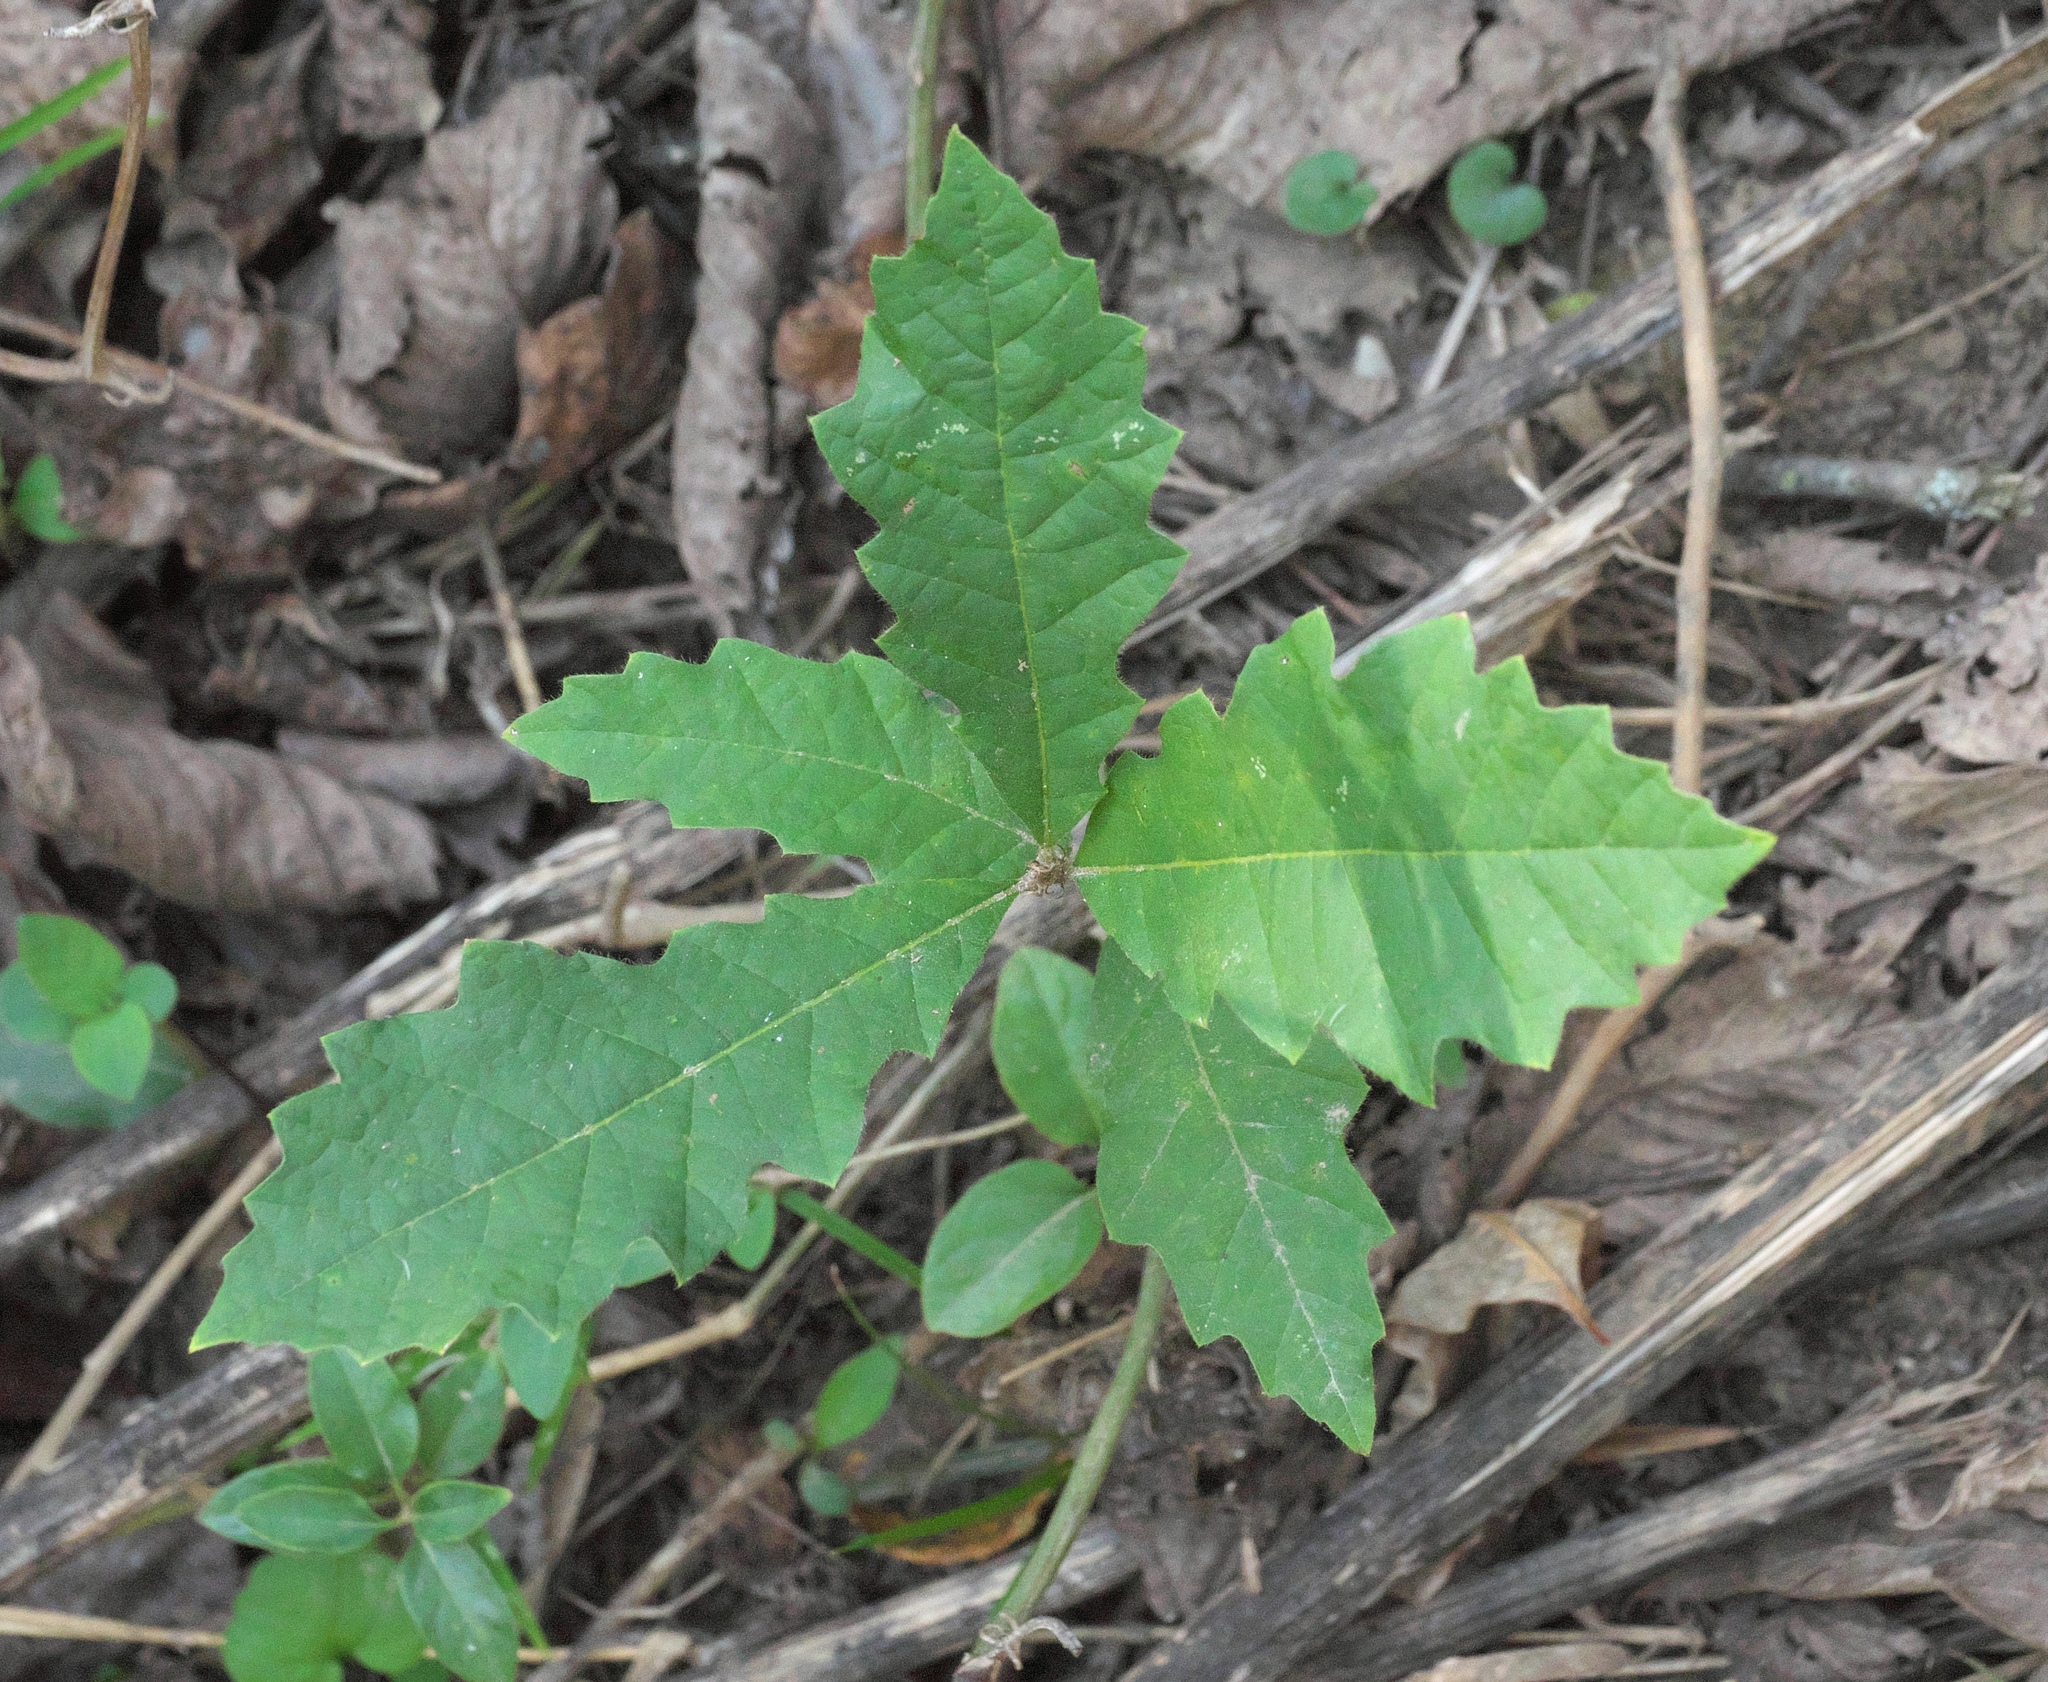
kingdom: Plantae
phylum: Tracheophyta
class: Magnoliopsida
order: Fagales
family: Fagaceae
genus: Quercus
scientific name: Quercus michauxii
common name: Swamp chestnut oak
